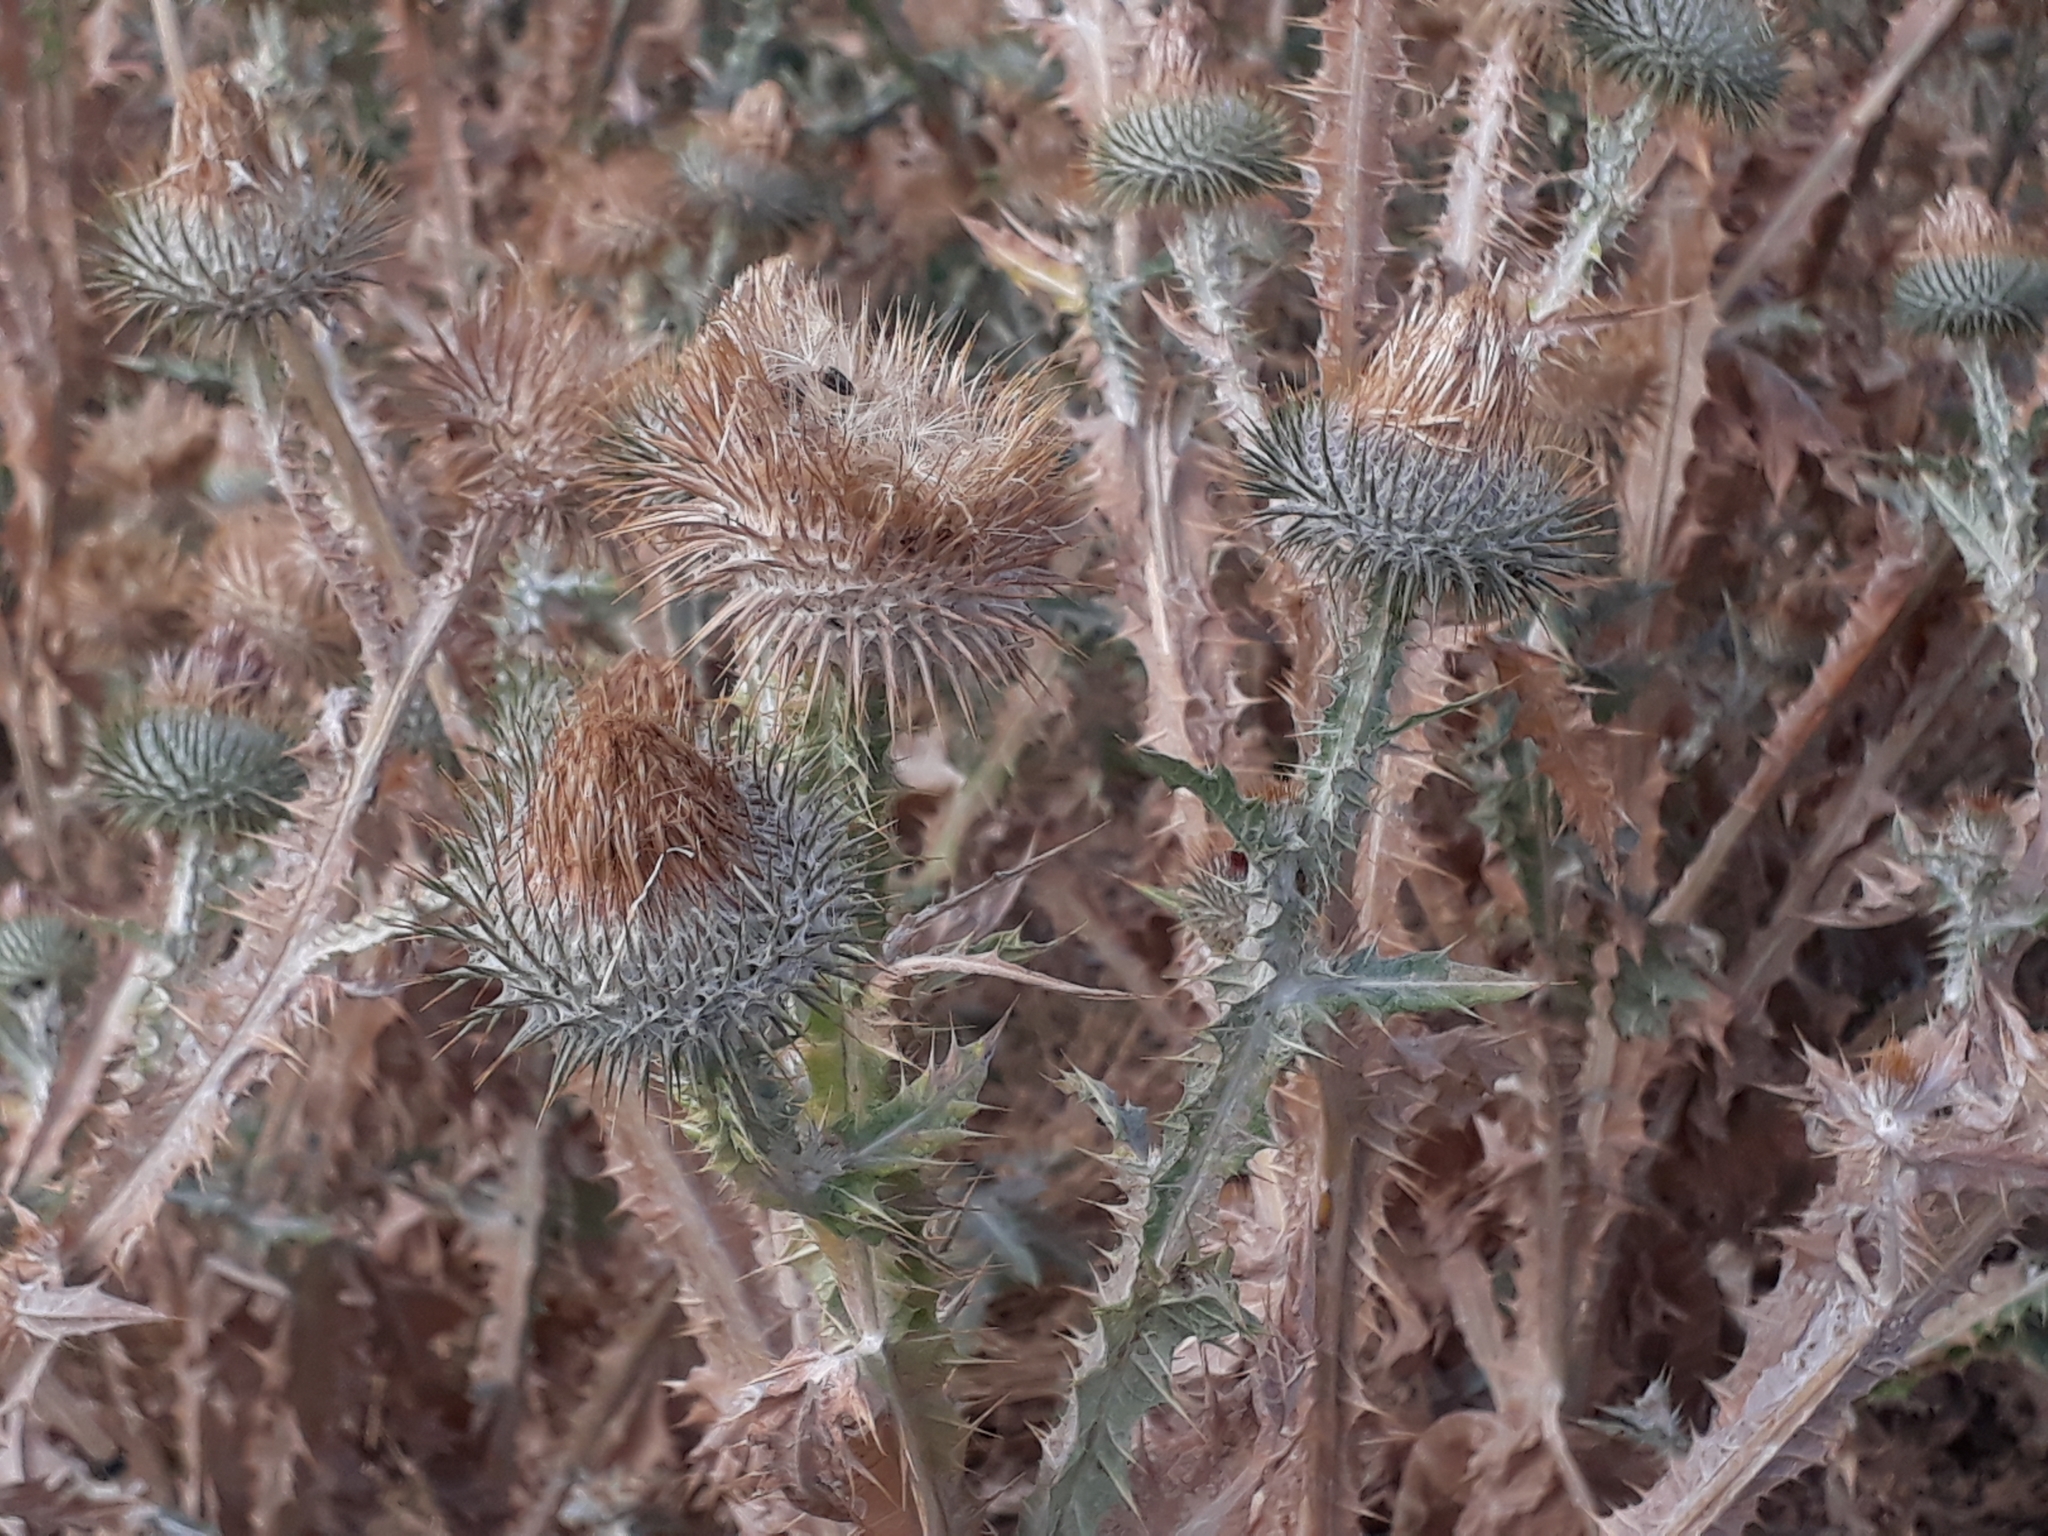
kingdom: Plantae
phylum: Tracheophyta
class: Magnoliopsida
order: Asterales
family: Asteraceae
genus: Onopordum
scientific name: Onopordum acanthium
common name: Scotch thistle
